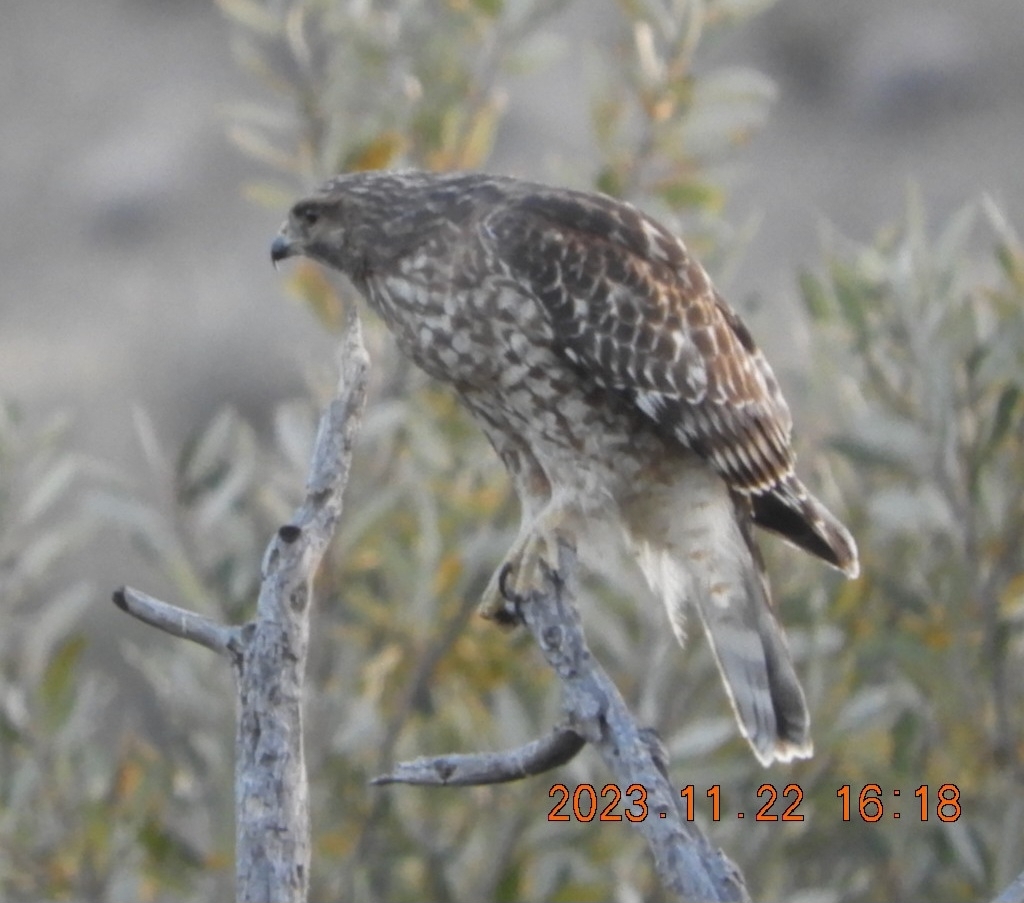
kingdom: Animalia
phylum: Chordata
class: Aves
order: Accipitriformes
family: Accipitridae
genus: Buteo
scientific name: Buteo lineatus
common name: Red-shouldered hawk
